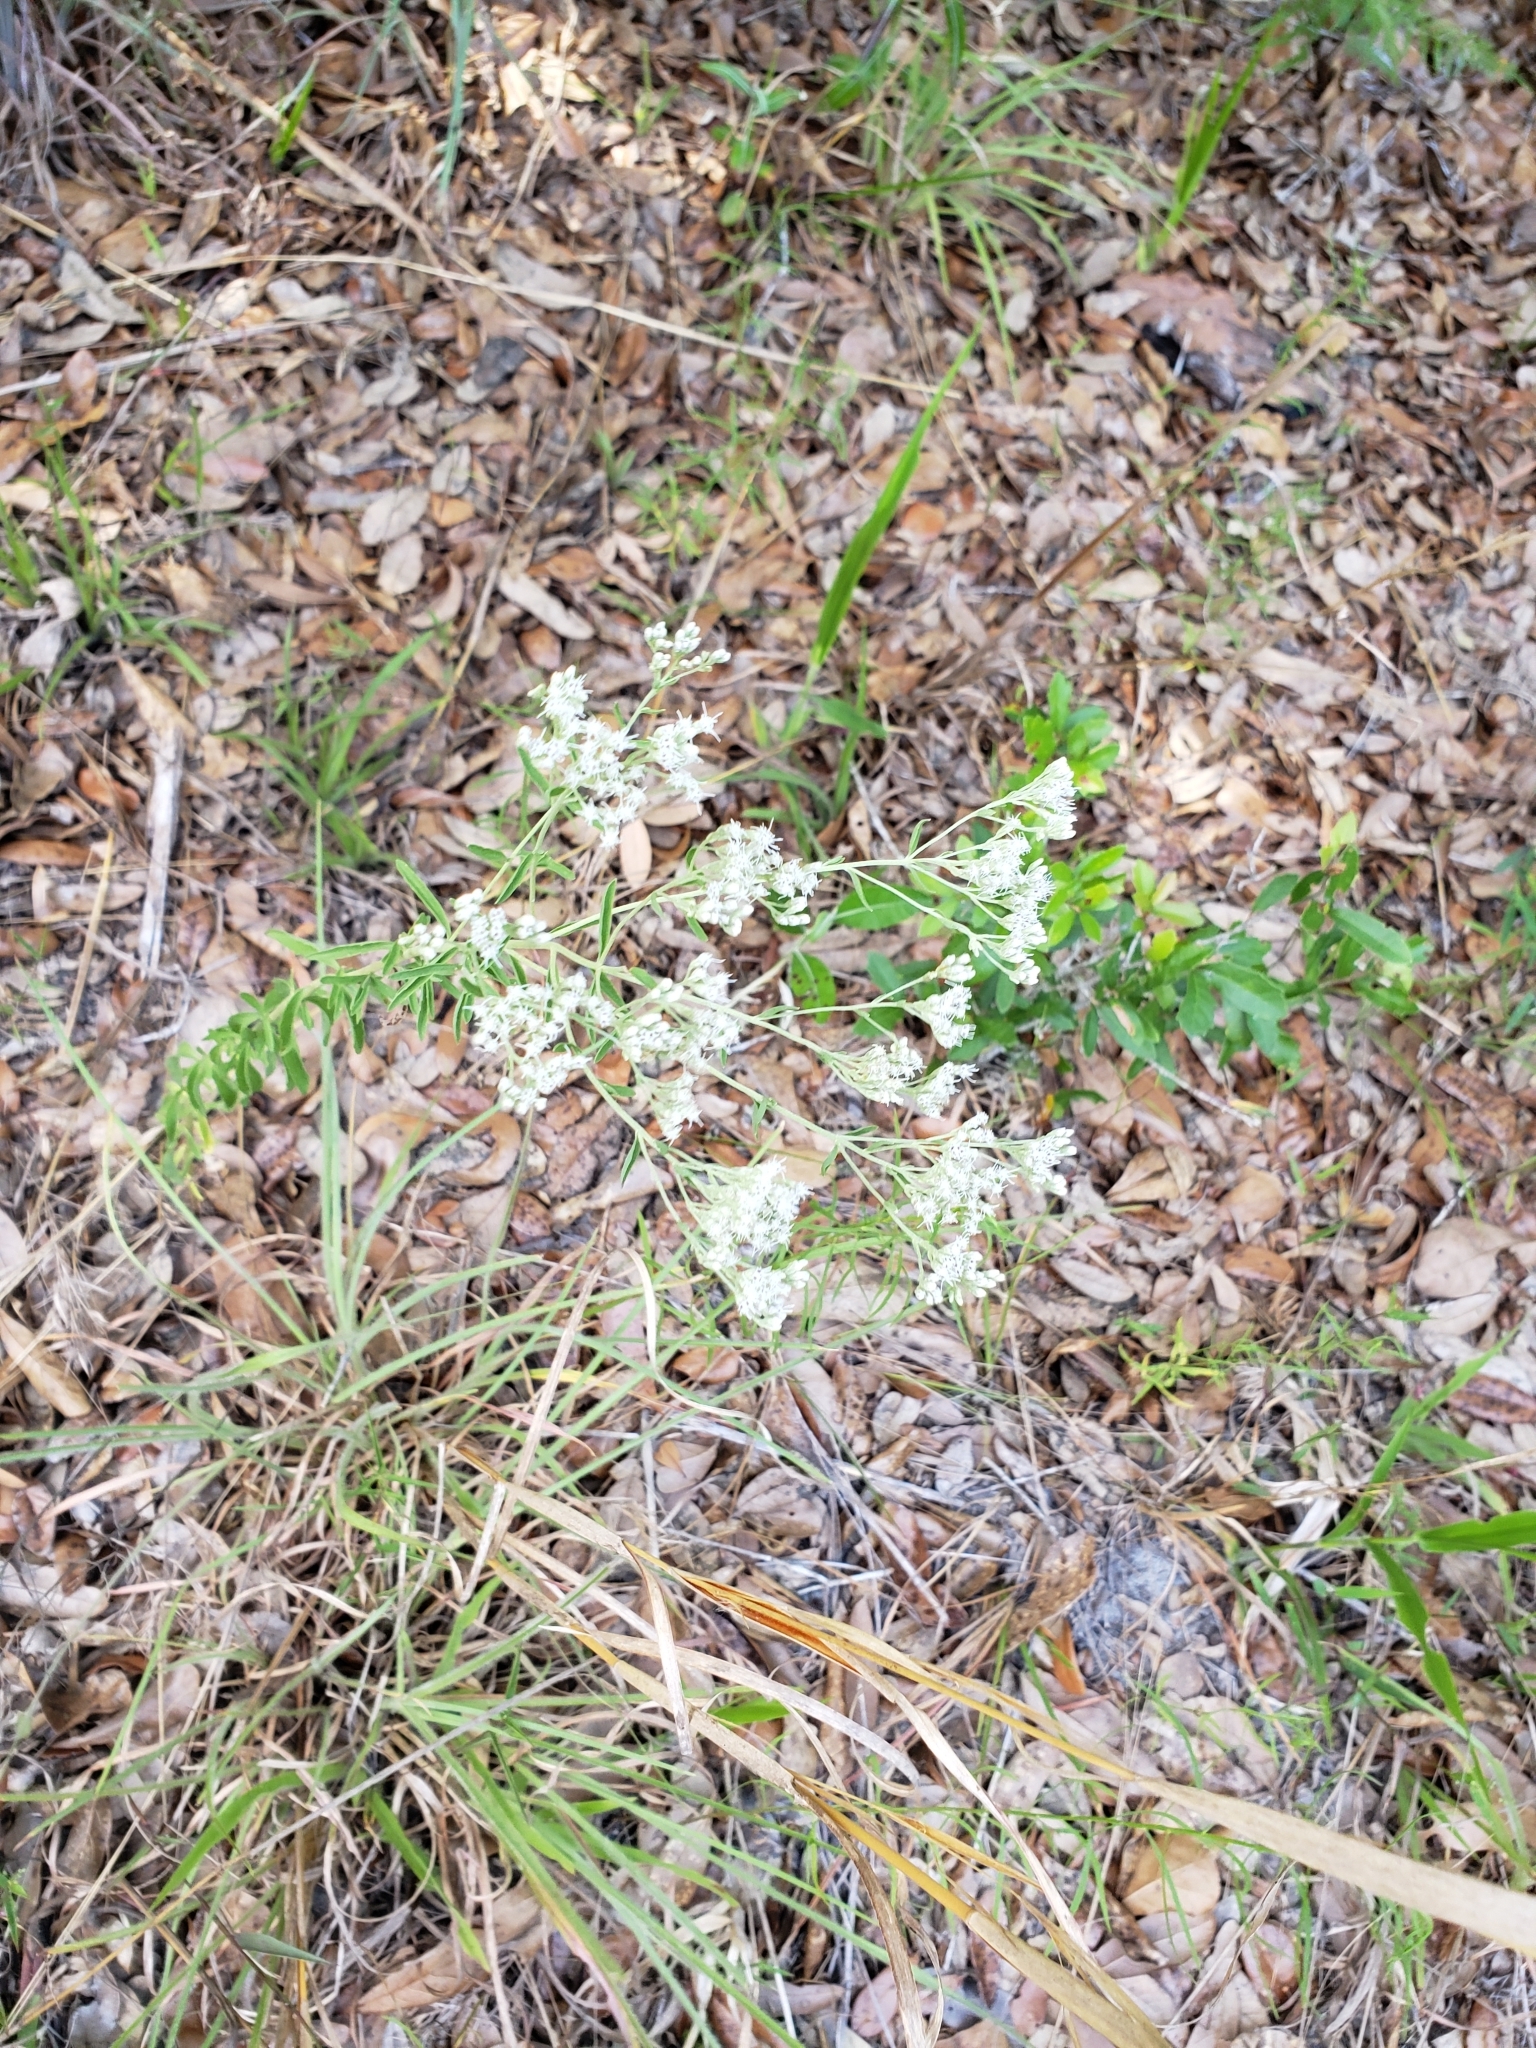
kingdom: Plantae
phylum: Tracheophyta
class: Magnoliopsida
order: Asterales
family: Asteraceae
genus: Eupatorium
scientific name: Eupatorium mohrii
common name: Mohr's thoroughwort
